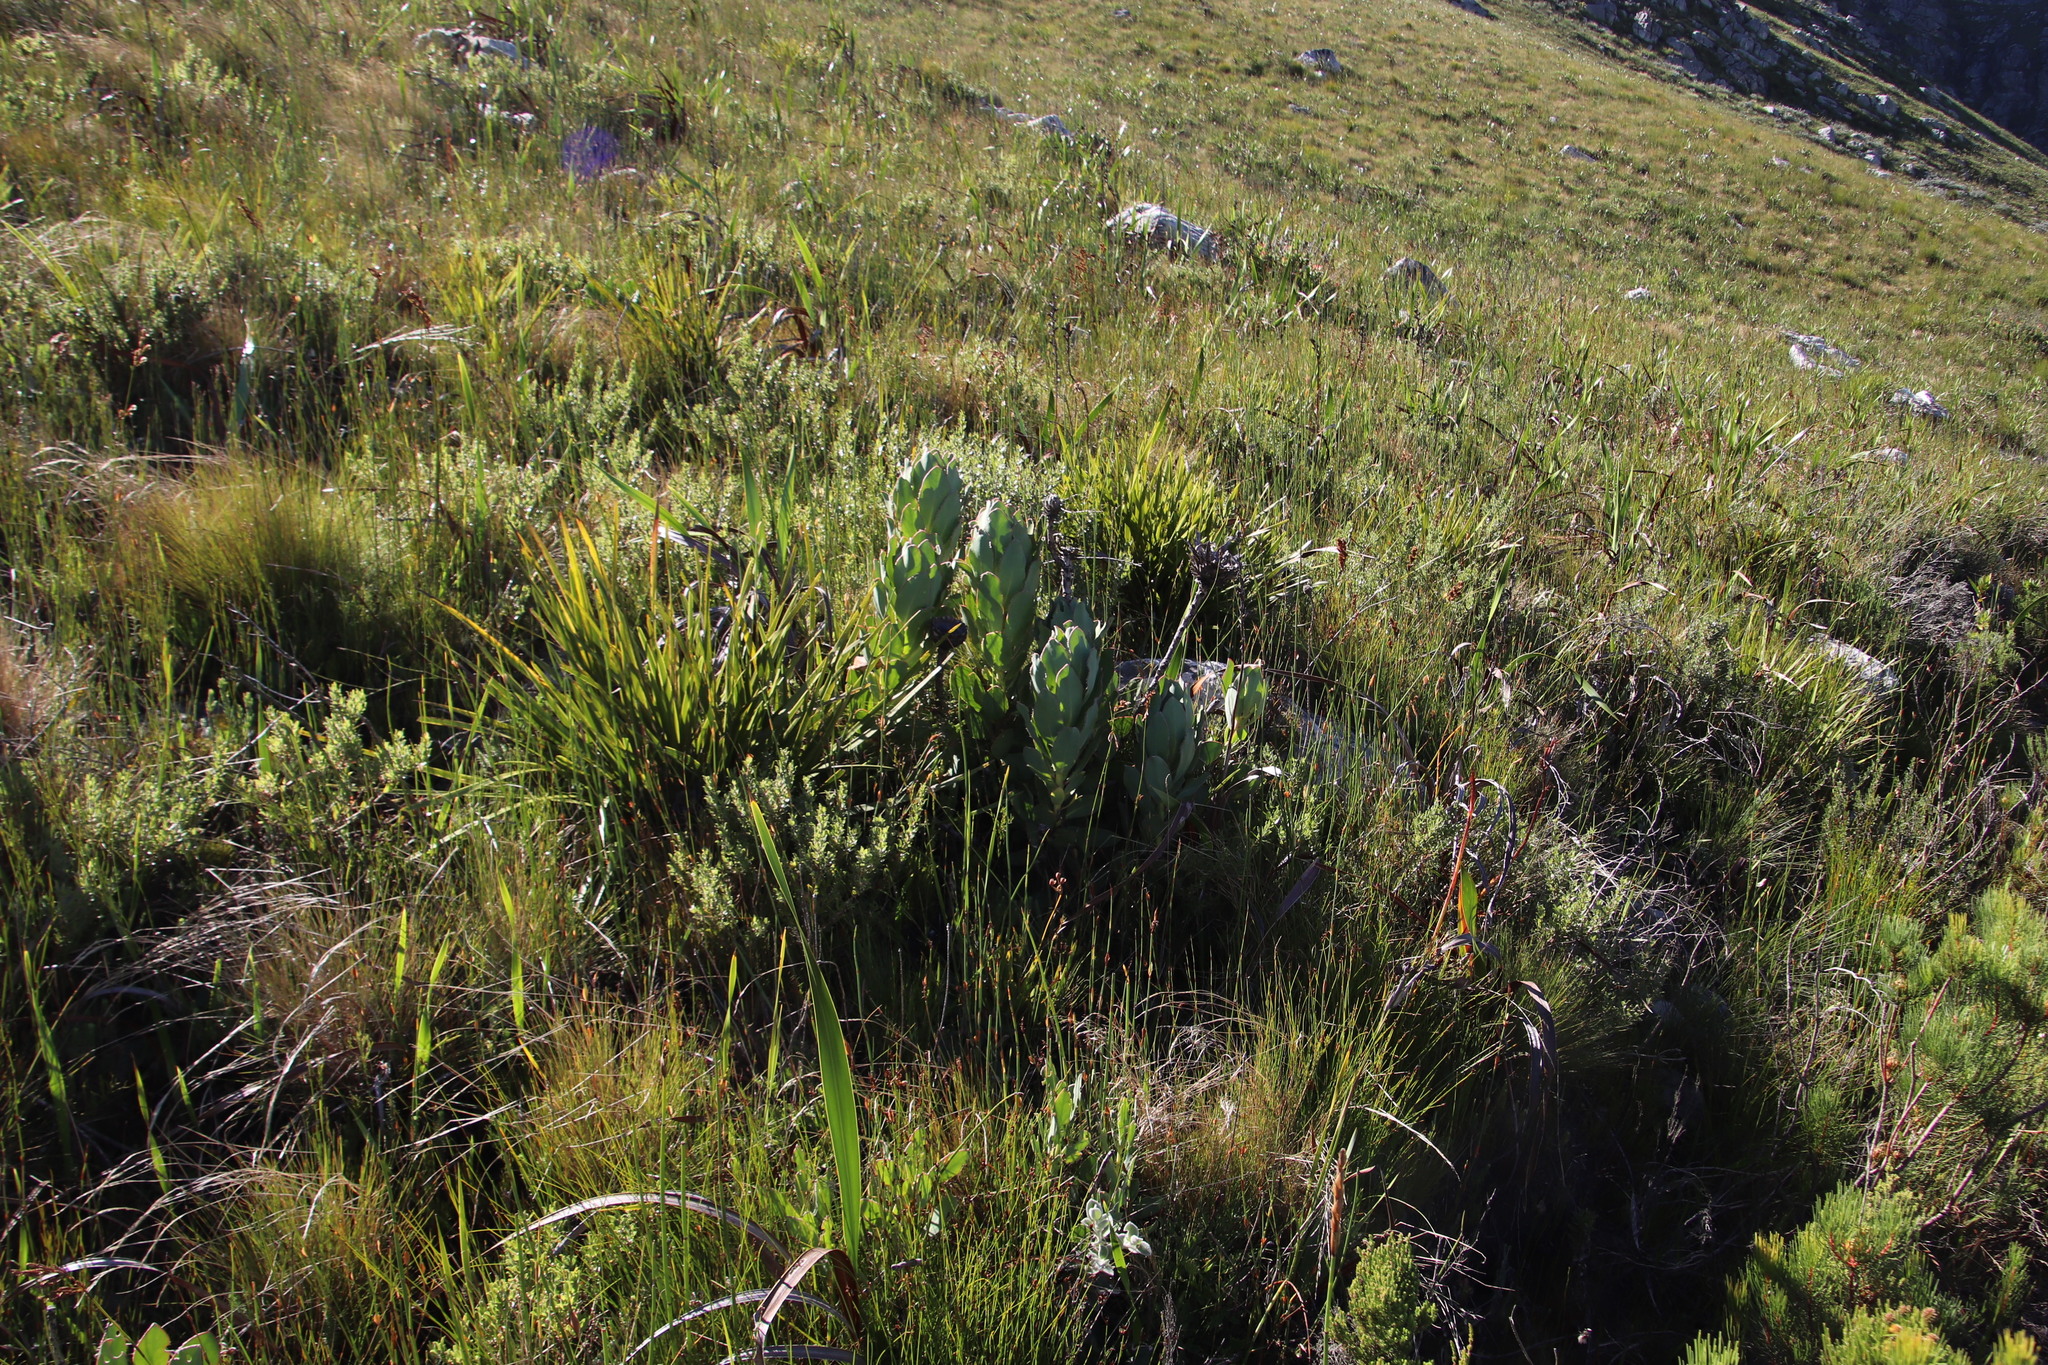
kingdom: Plantae
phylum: Tracheophyta
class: Magnoliopsida
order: Proteales
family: Proteaceae
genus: Protea
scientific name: Protea speciosa
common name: Brown-beard sugarbush
